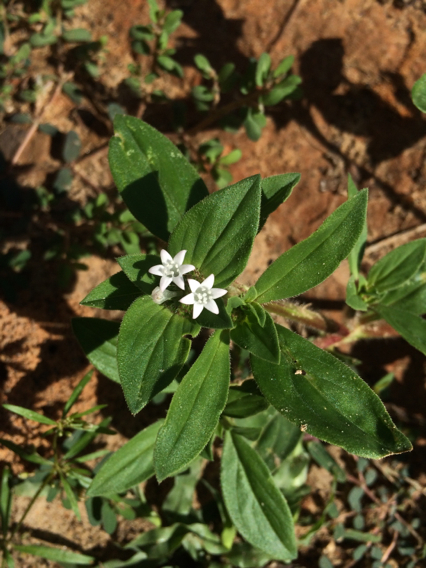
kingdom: Plantae
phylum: Tracheophyta
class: Magnoliopsida
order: Gentianales
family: Rubiaceae
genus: Richardia
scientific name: Richardia brasiliensis
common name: Tropical mexican clover
